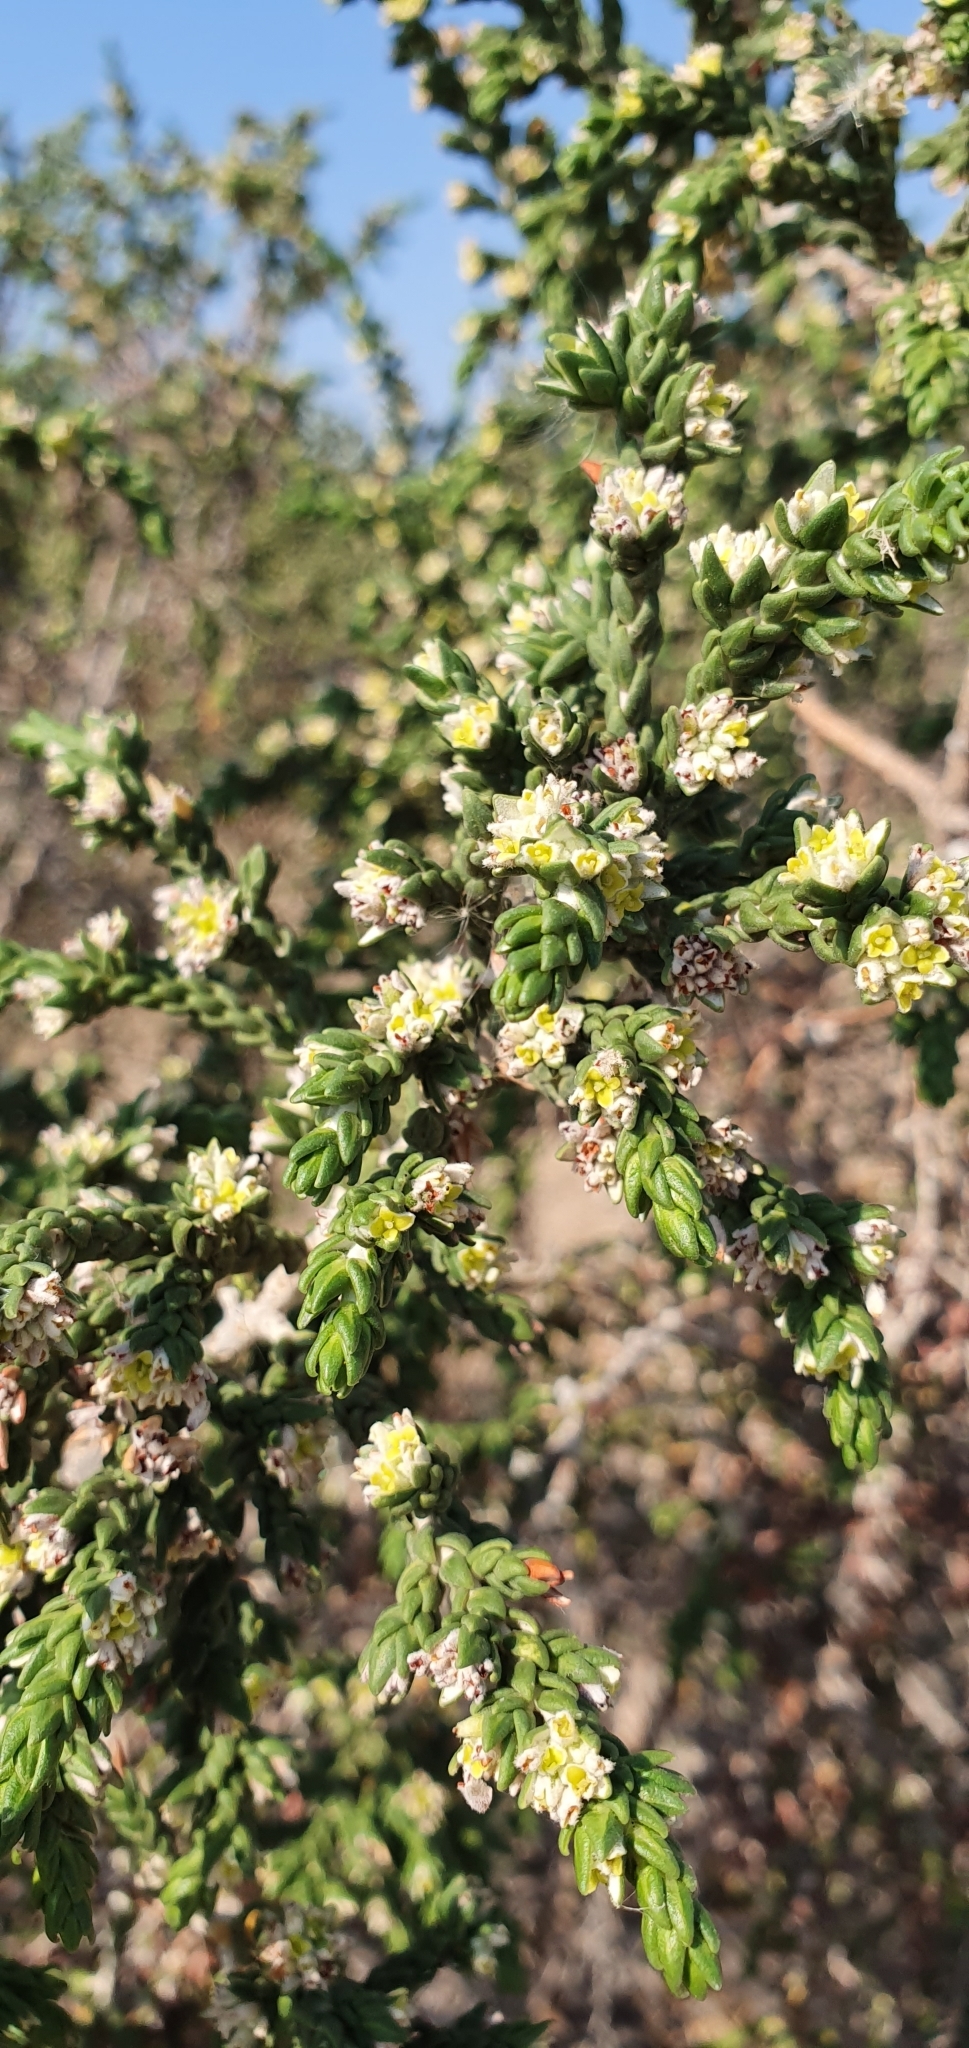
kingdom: Plantae
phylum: Tracheophyta
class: Magnoliopsida
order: Malvales
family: Thymelaeaceae
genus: Thymelaea
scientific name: Thymelaea hirsuta
